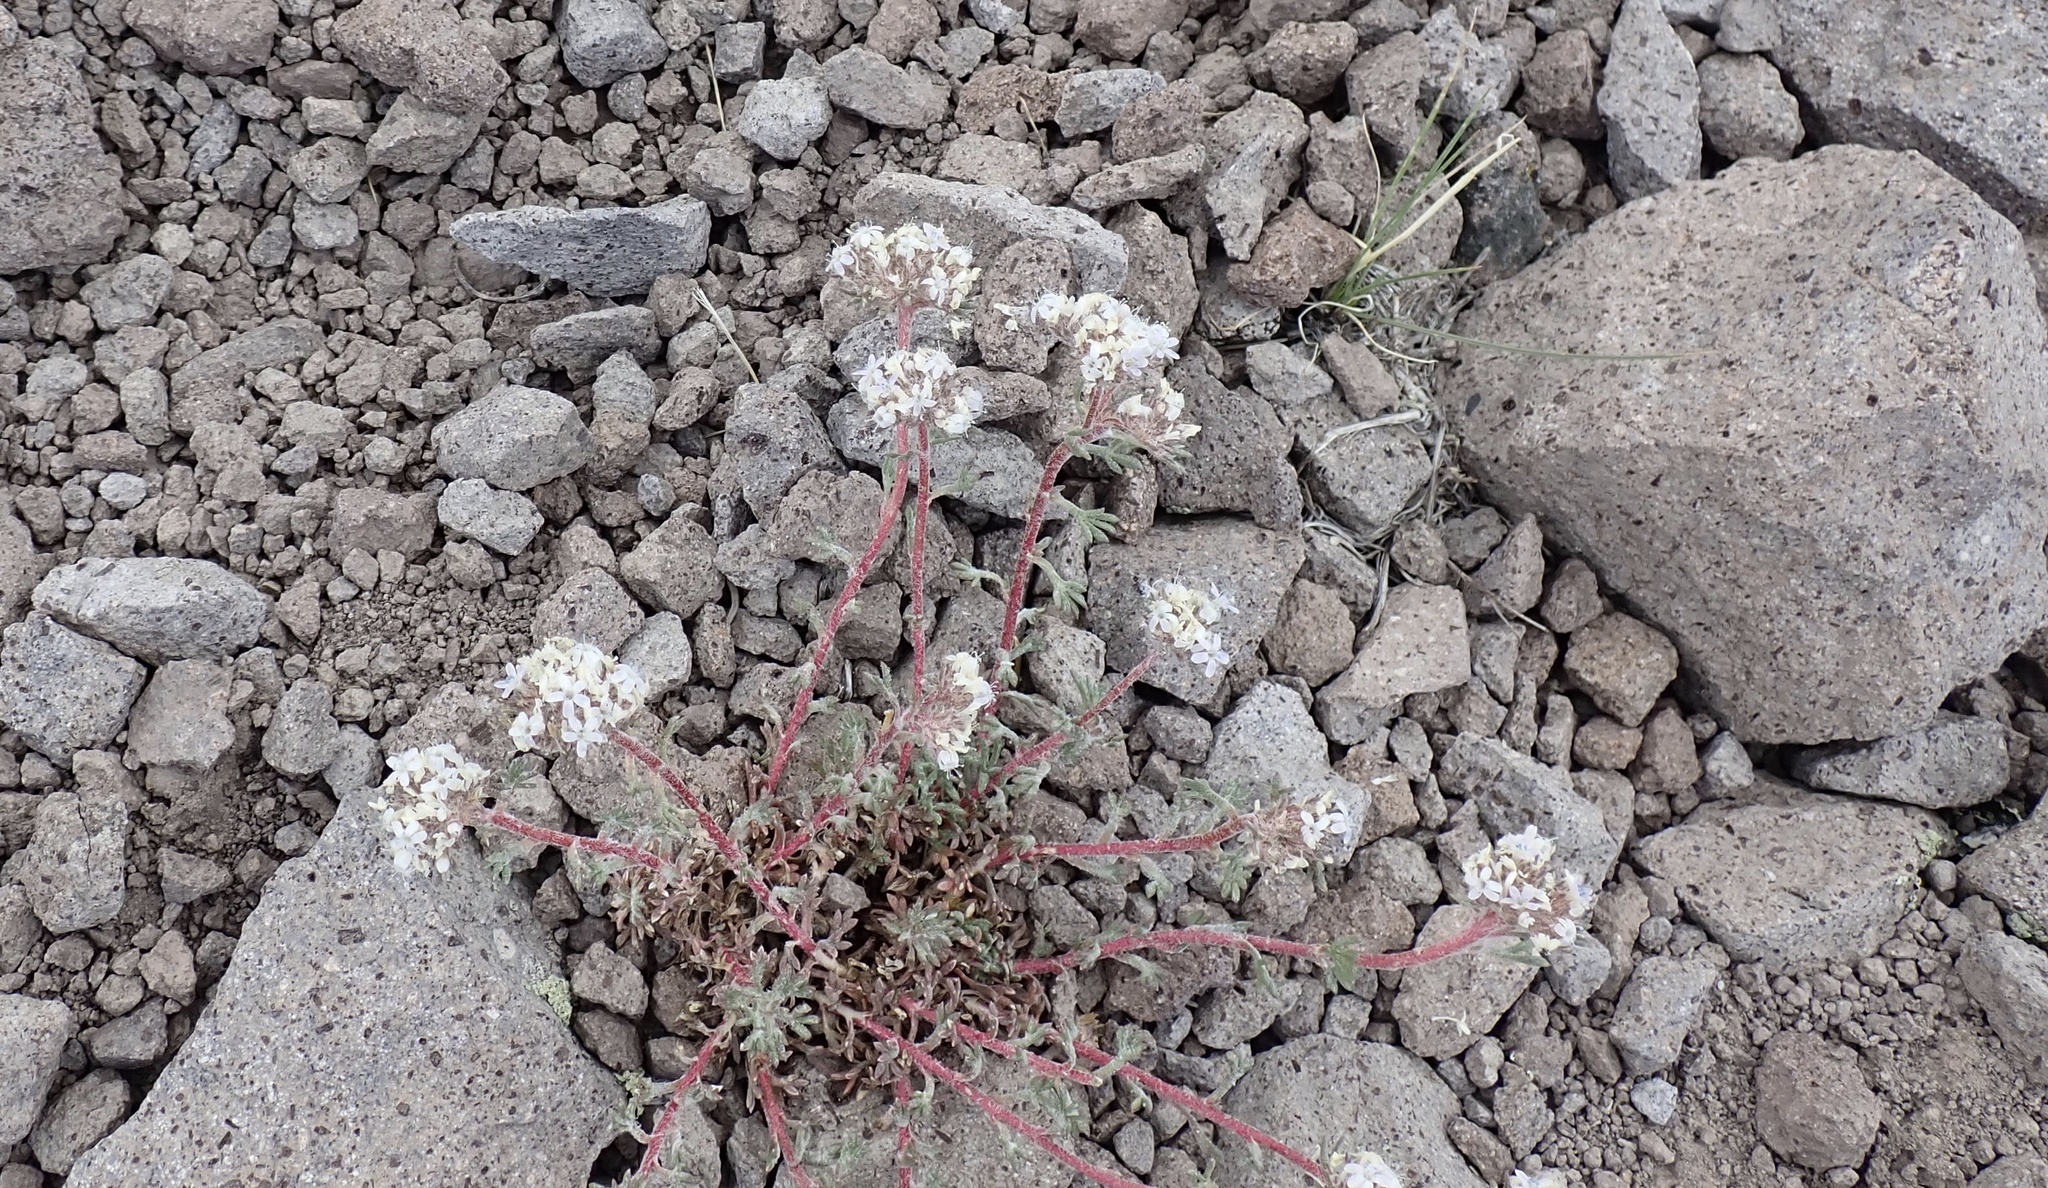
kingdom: Plantae
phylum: Tracheophyta
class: Magnoliopsida
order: Ericales
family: Polemoniaceae
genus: Ipomopsis
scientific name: Ipomopsis congesta
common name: Ball-head gilia
